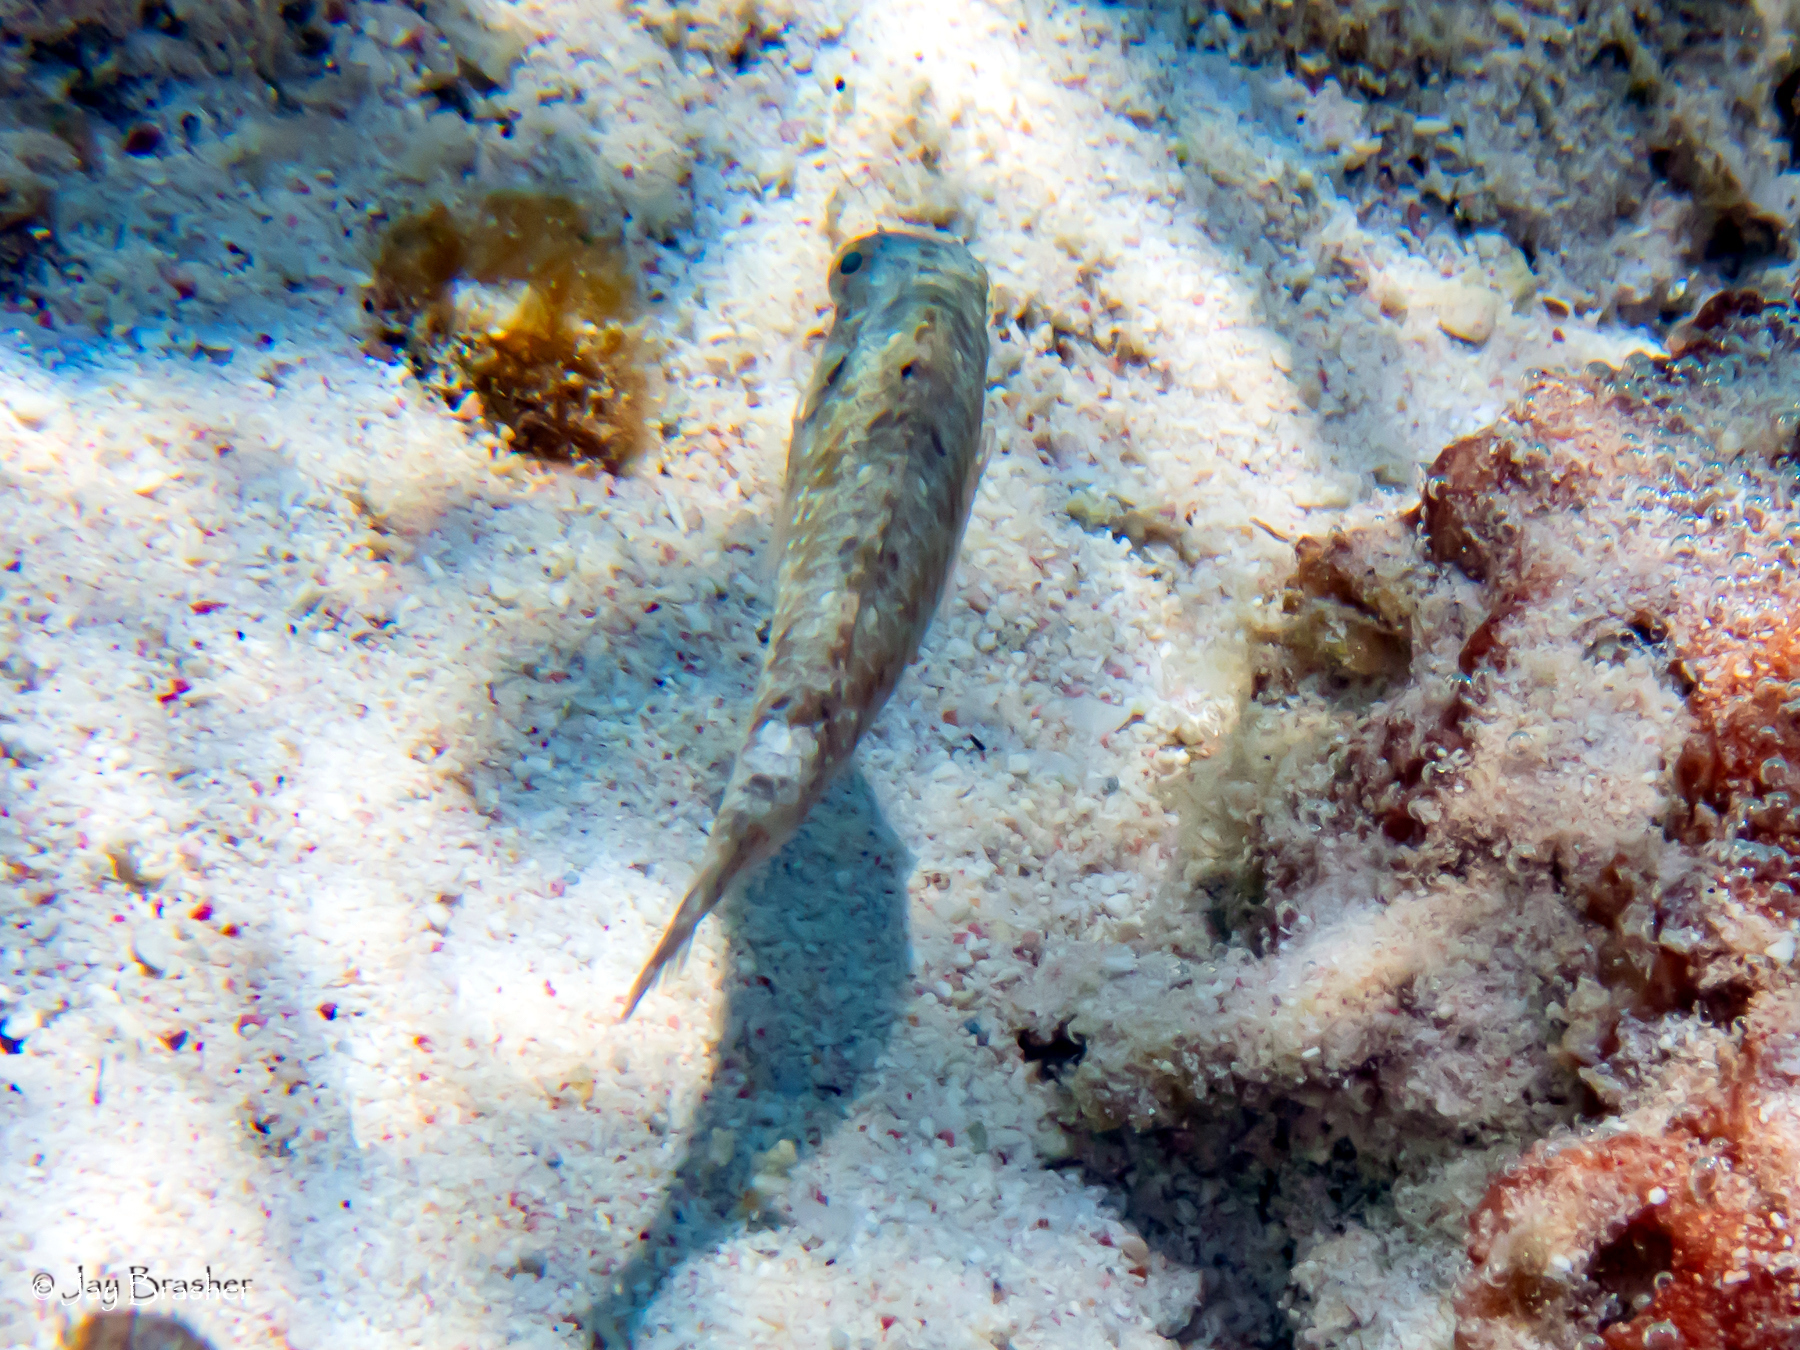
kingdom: Animalia
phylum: Chordata
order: Perciformes
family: Scaridae
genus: Sparisoma
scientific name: Sparisoma aurofrenatum
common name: Redband parrotfish
